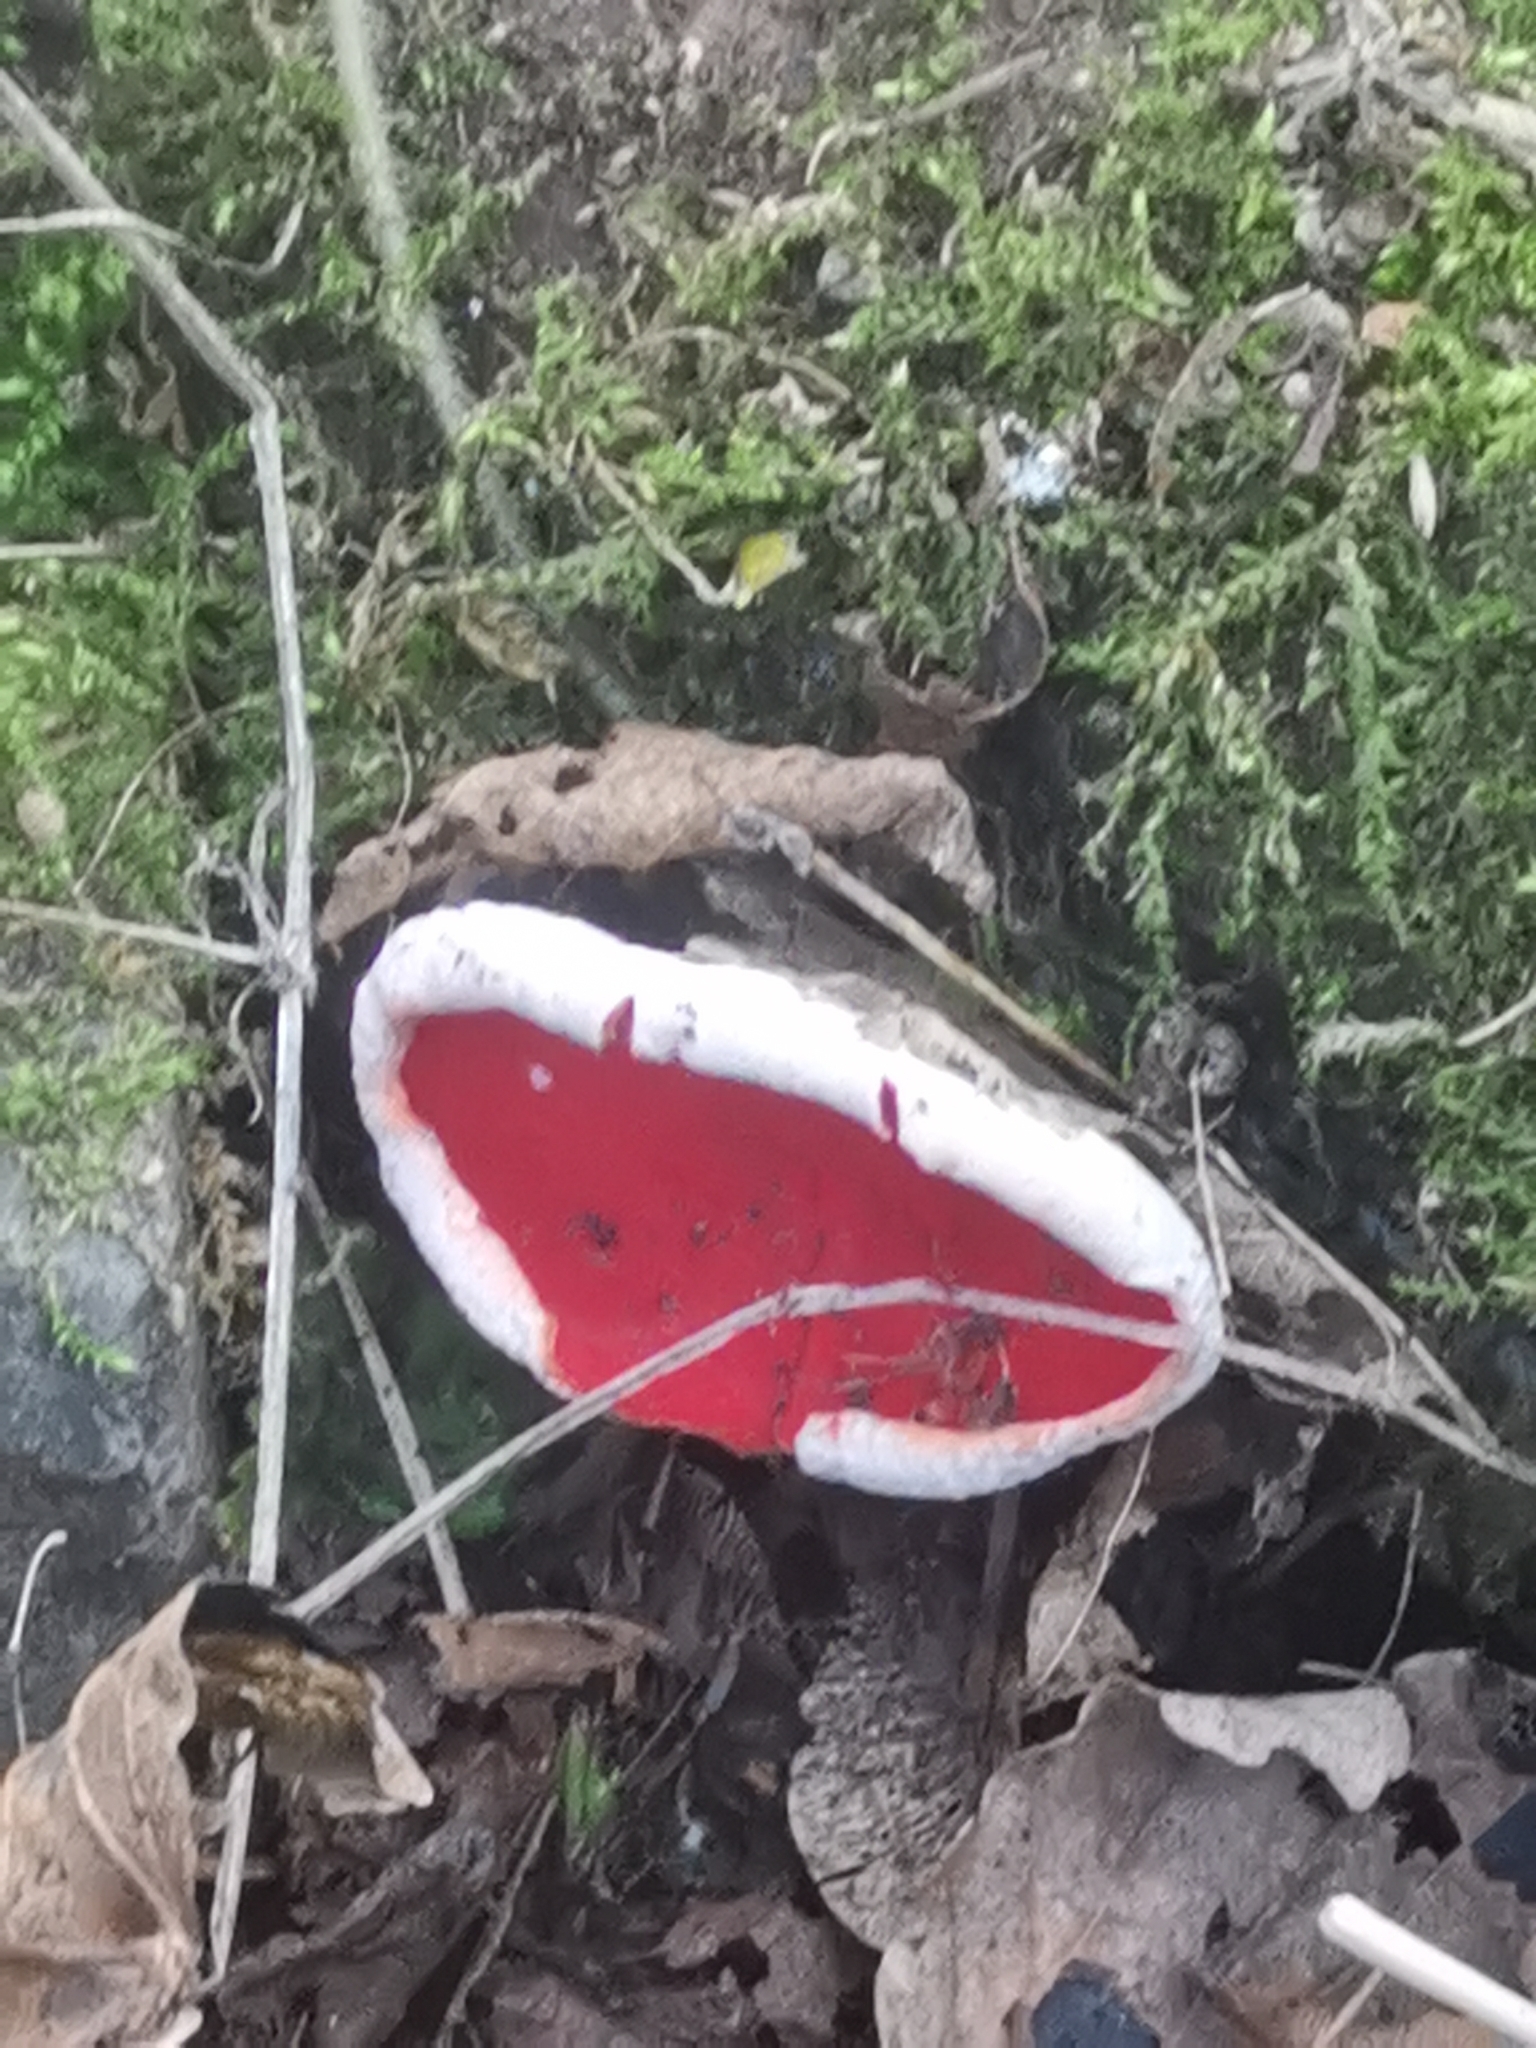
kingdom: Fungi
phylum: Ascomycota
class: Pezizomycetes
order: Pezizales
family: Sarcoscyphaceae
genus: Sarcoscypha
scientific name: Sarcoscypha
